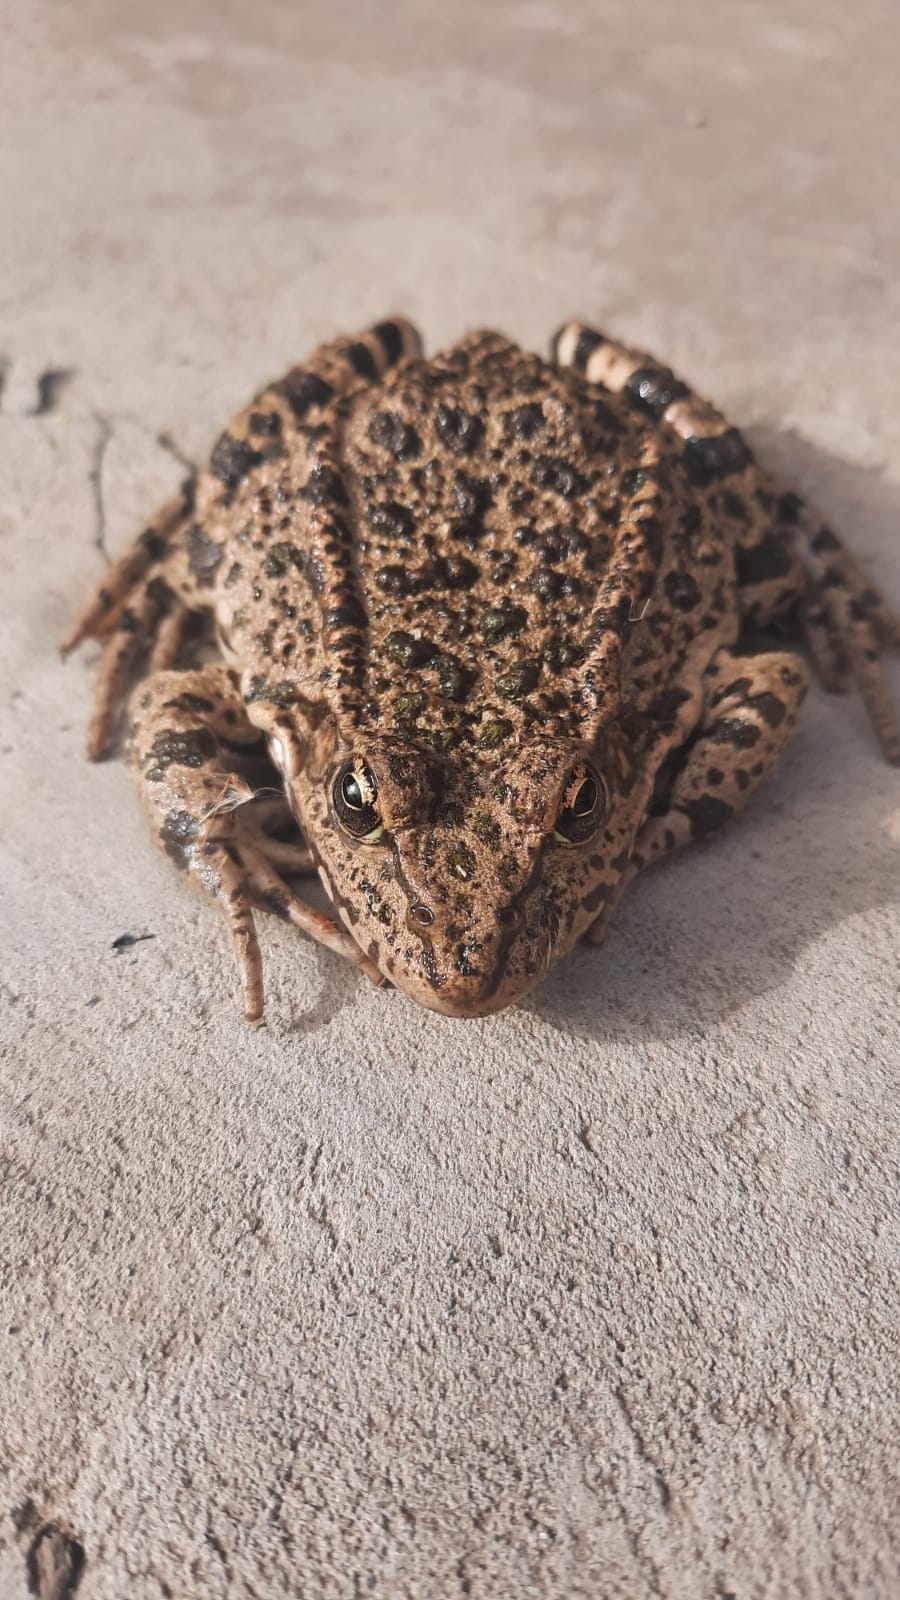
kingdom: Animalia
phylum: Chordata
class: Amphibia
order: Anura
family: Ranidae
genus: Pelophylax
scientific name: Pelophylax ridibundus
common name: Marsh frog
